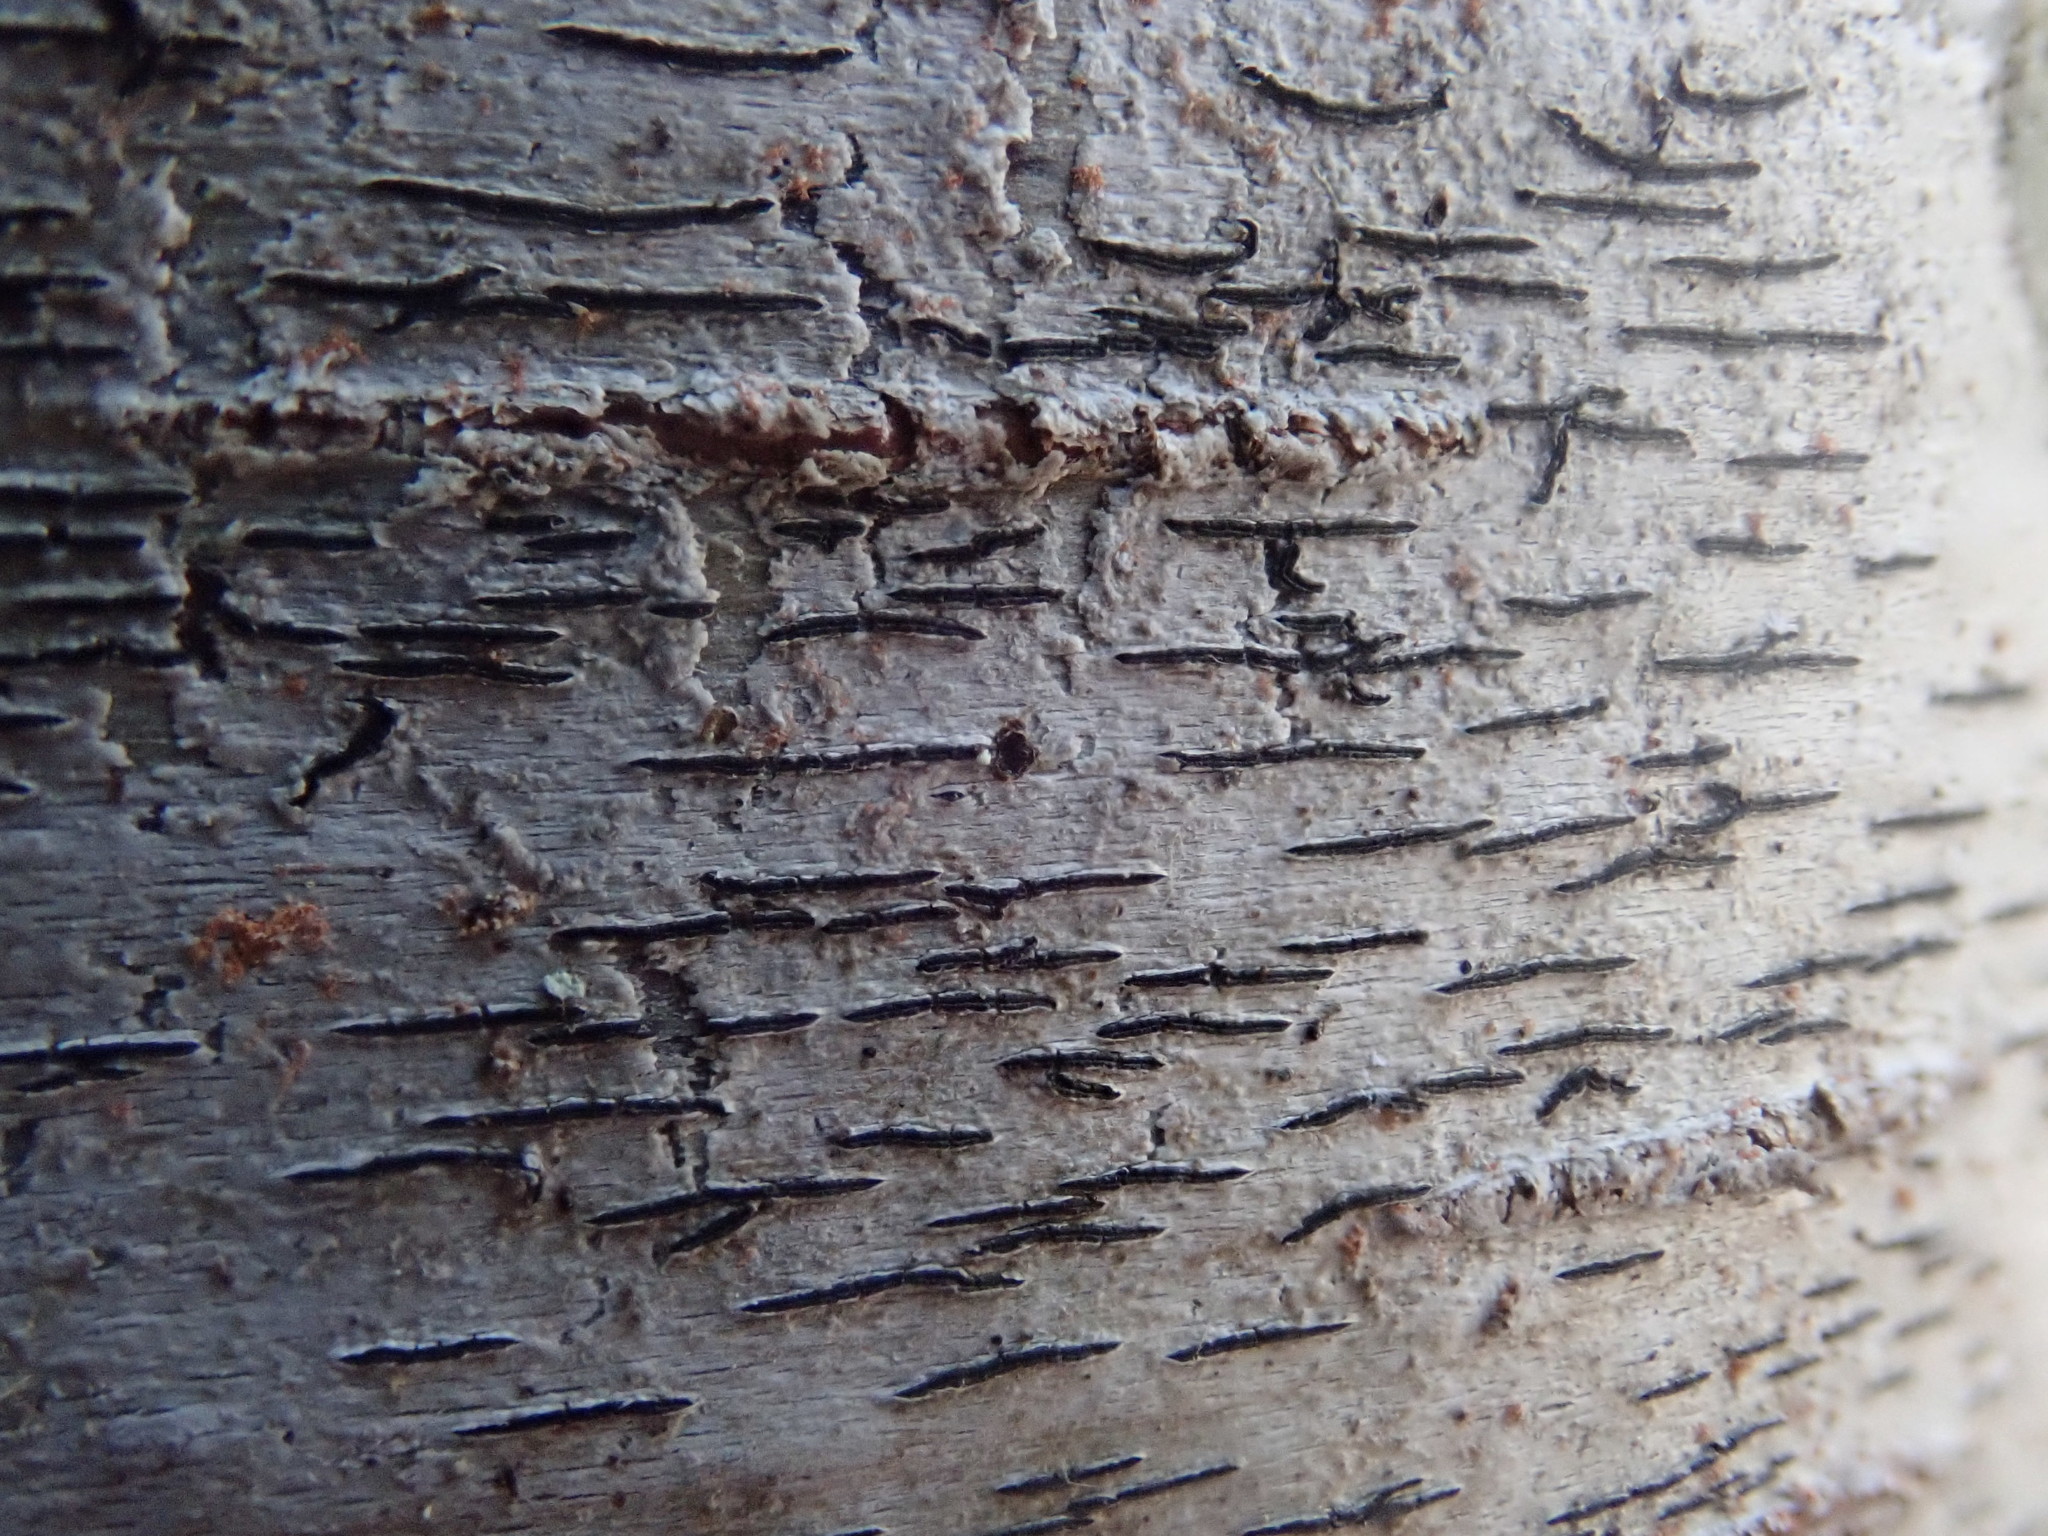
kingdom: Fungi
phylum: Ascomycota
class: Lecanoromycetes
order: Ostropales
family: Graphidaceae
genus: Graphis
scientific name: Graphis scripta
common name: Script lichen
